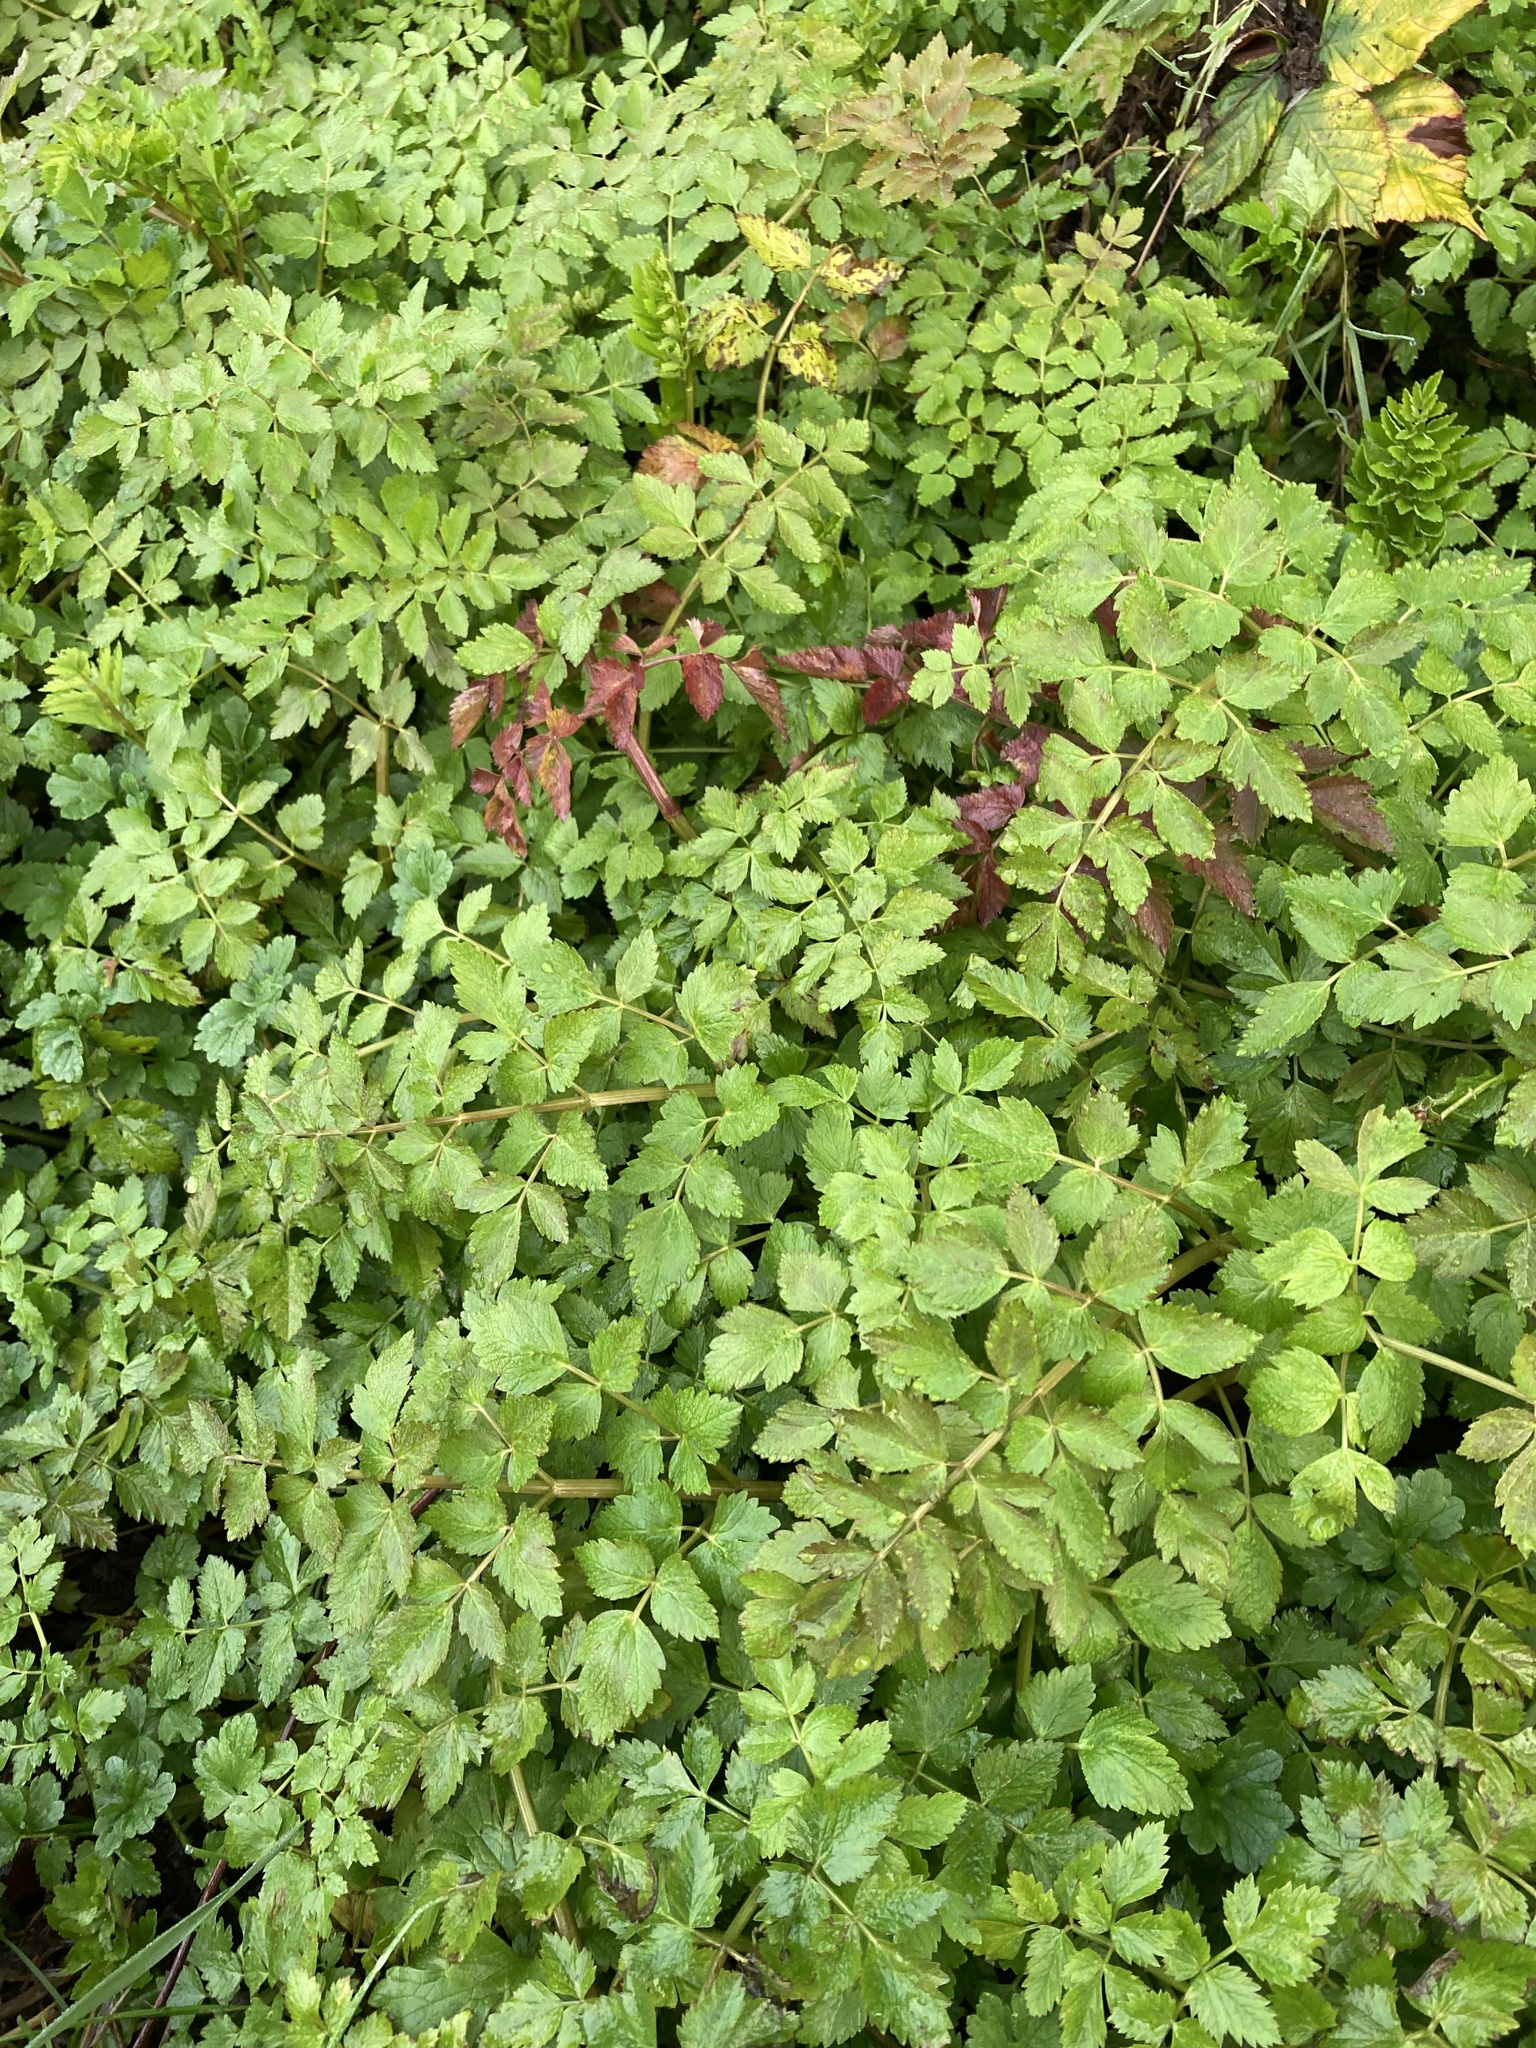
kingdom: Plantae
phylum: Tracheophyta
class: Magnoliopsida
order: Apiales
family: Apiaceae
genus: Oenanthe
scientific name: Oenanthe sarmentosa
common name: American water-parsley
